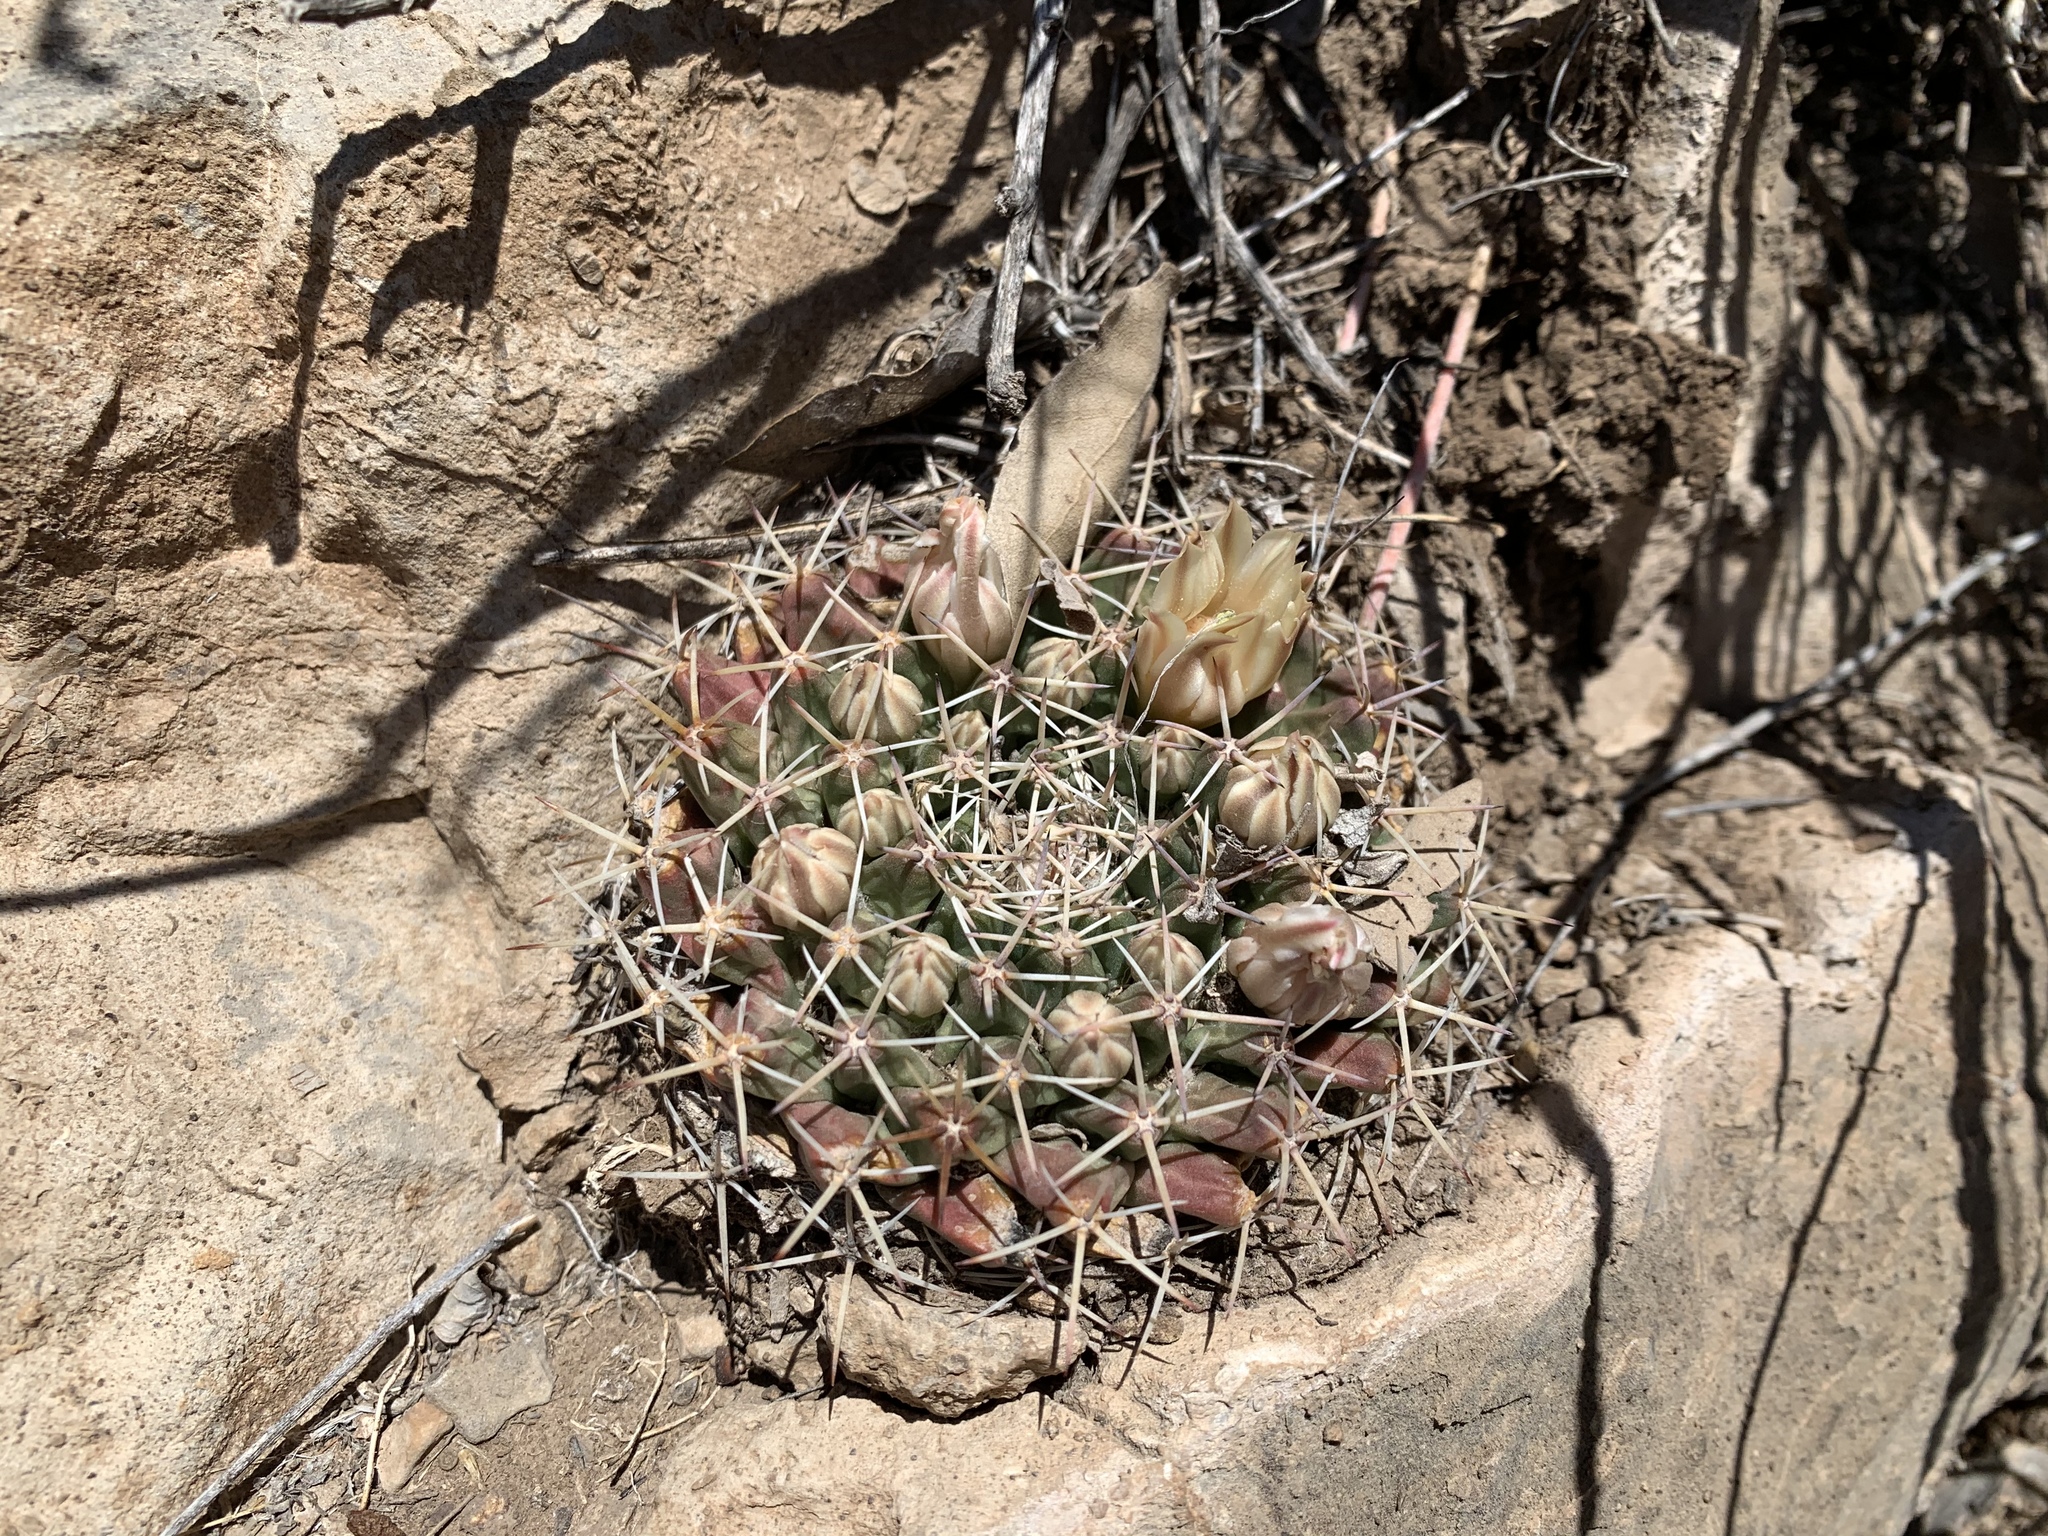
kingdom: Plantae
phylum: Tracheophyta
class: Magnoliopsida
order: Caryophyllales
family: Cactaceae
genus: Mammillaria
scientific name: Mammillaria heyderi
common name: Little nipple cactus
